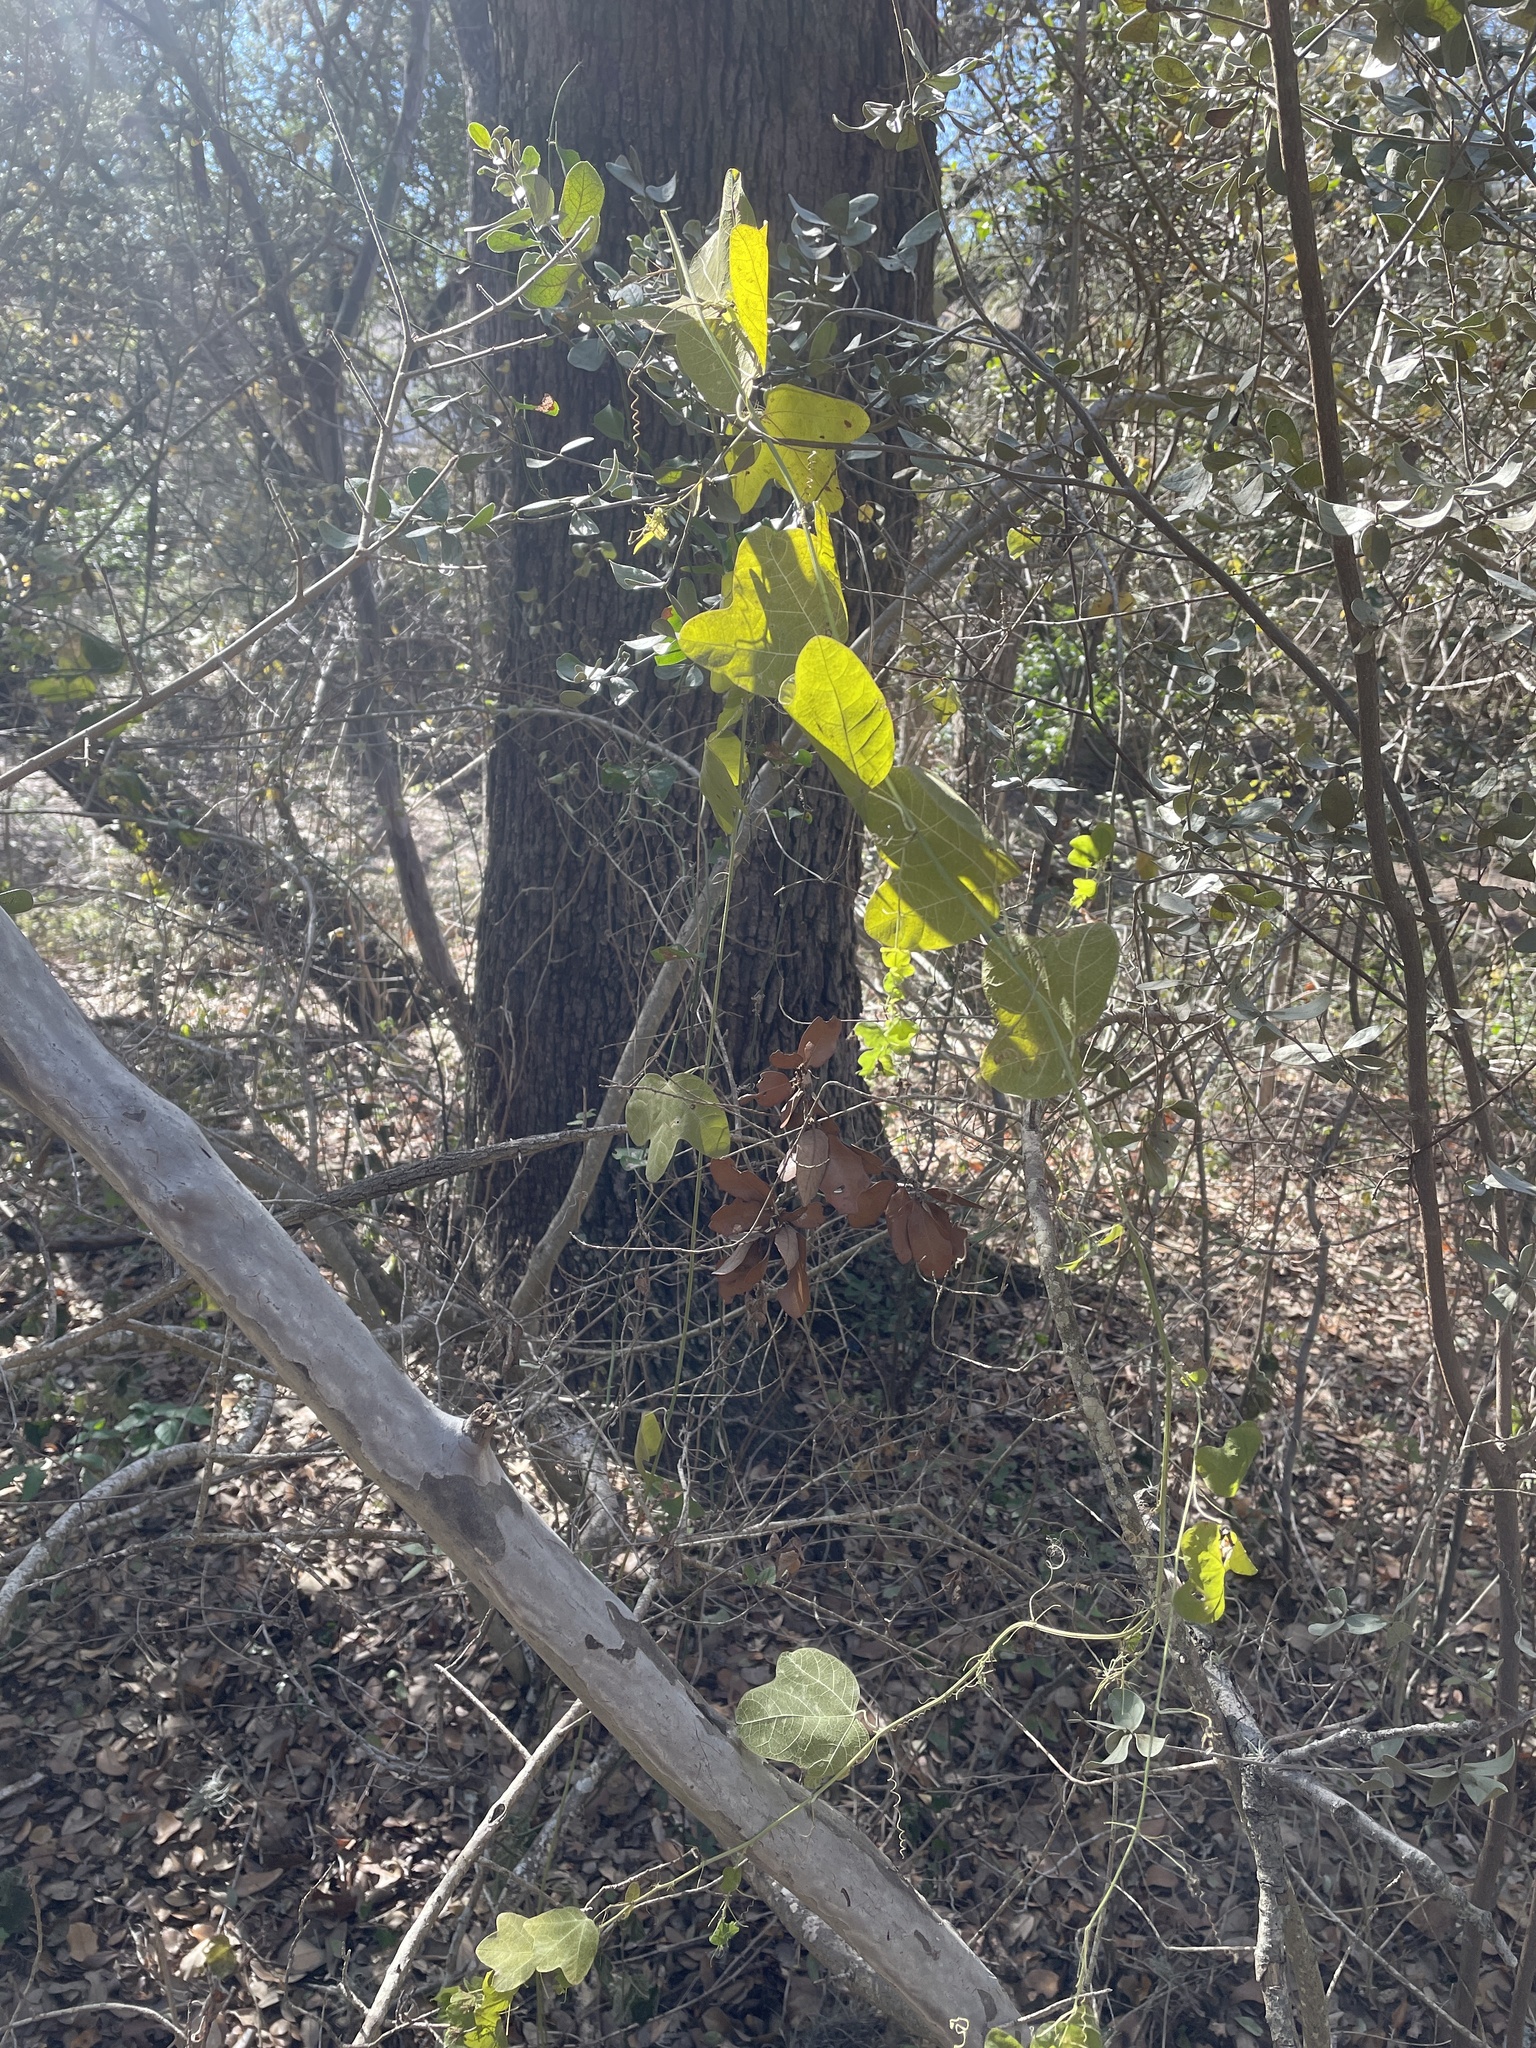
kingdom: Plantae
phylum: Tracheophyta
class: Magnoliopsida
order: Malpighiales
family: Passifloraceae
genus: Passiflora
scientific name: Passiflora lutea
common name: Yellow passionflower
